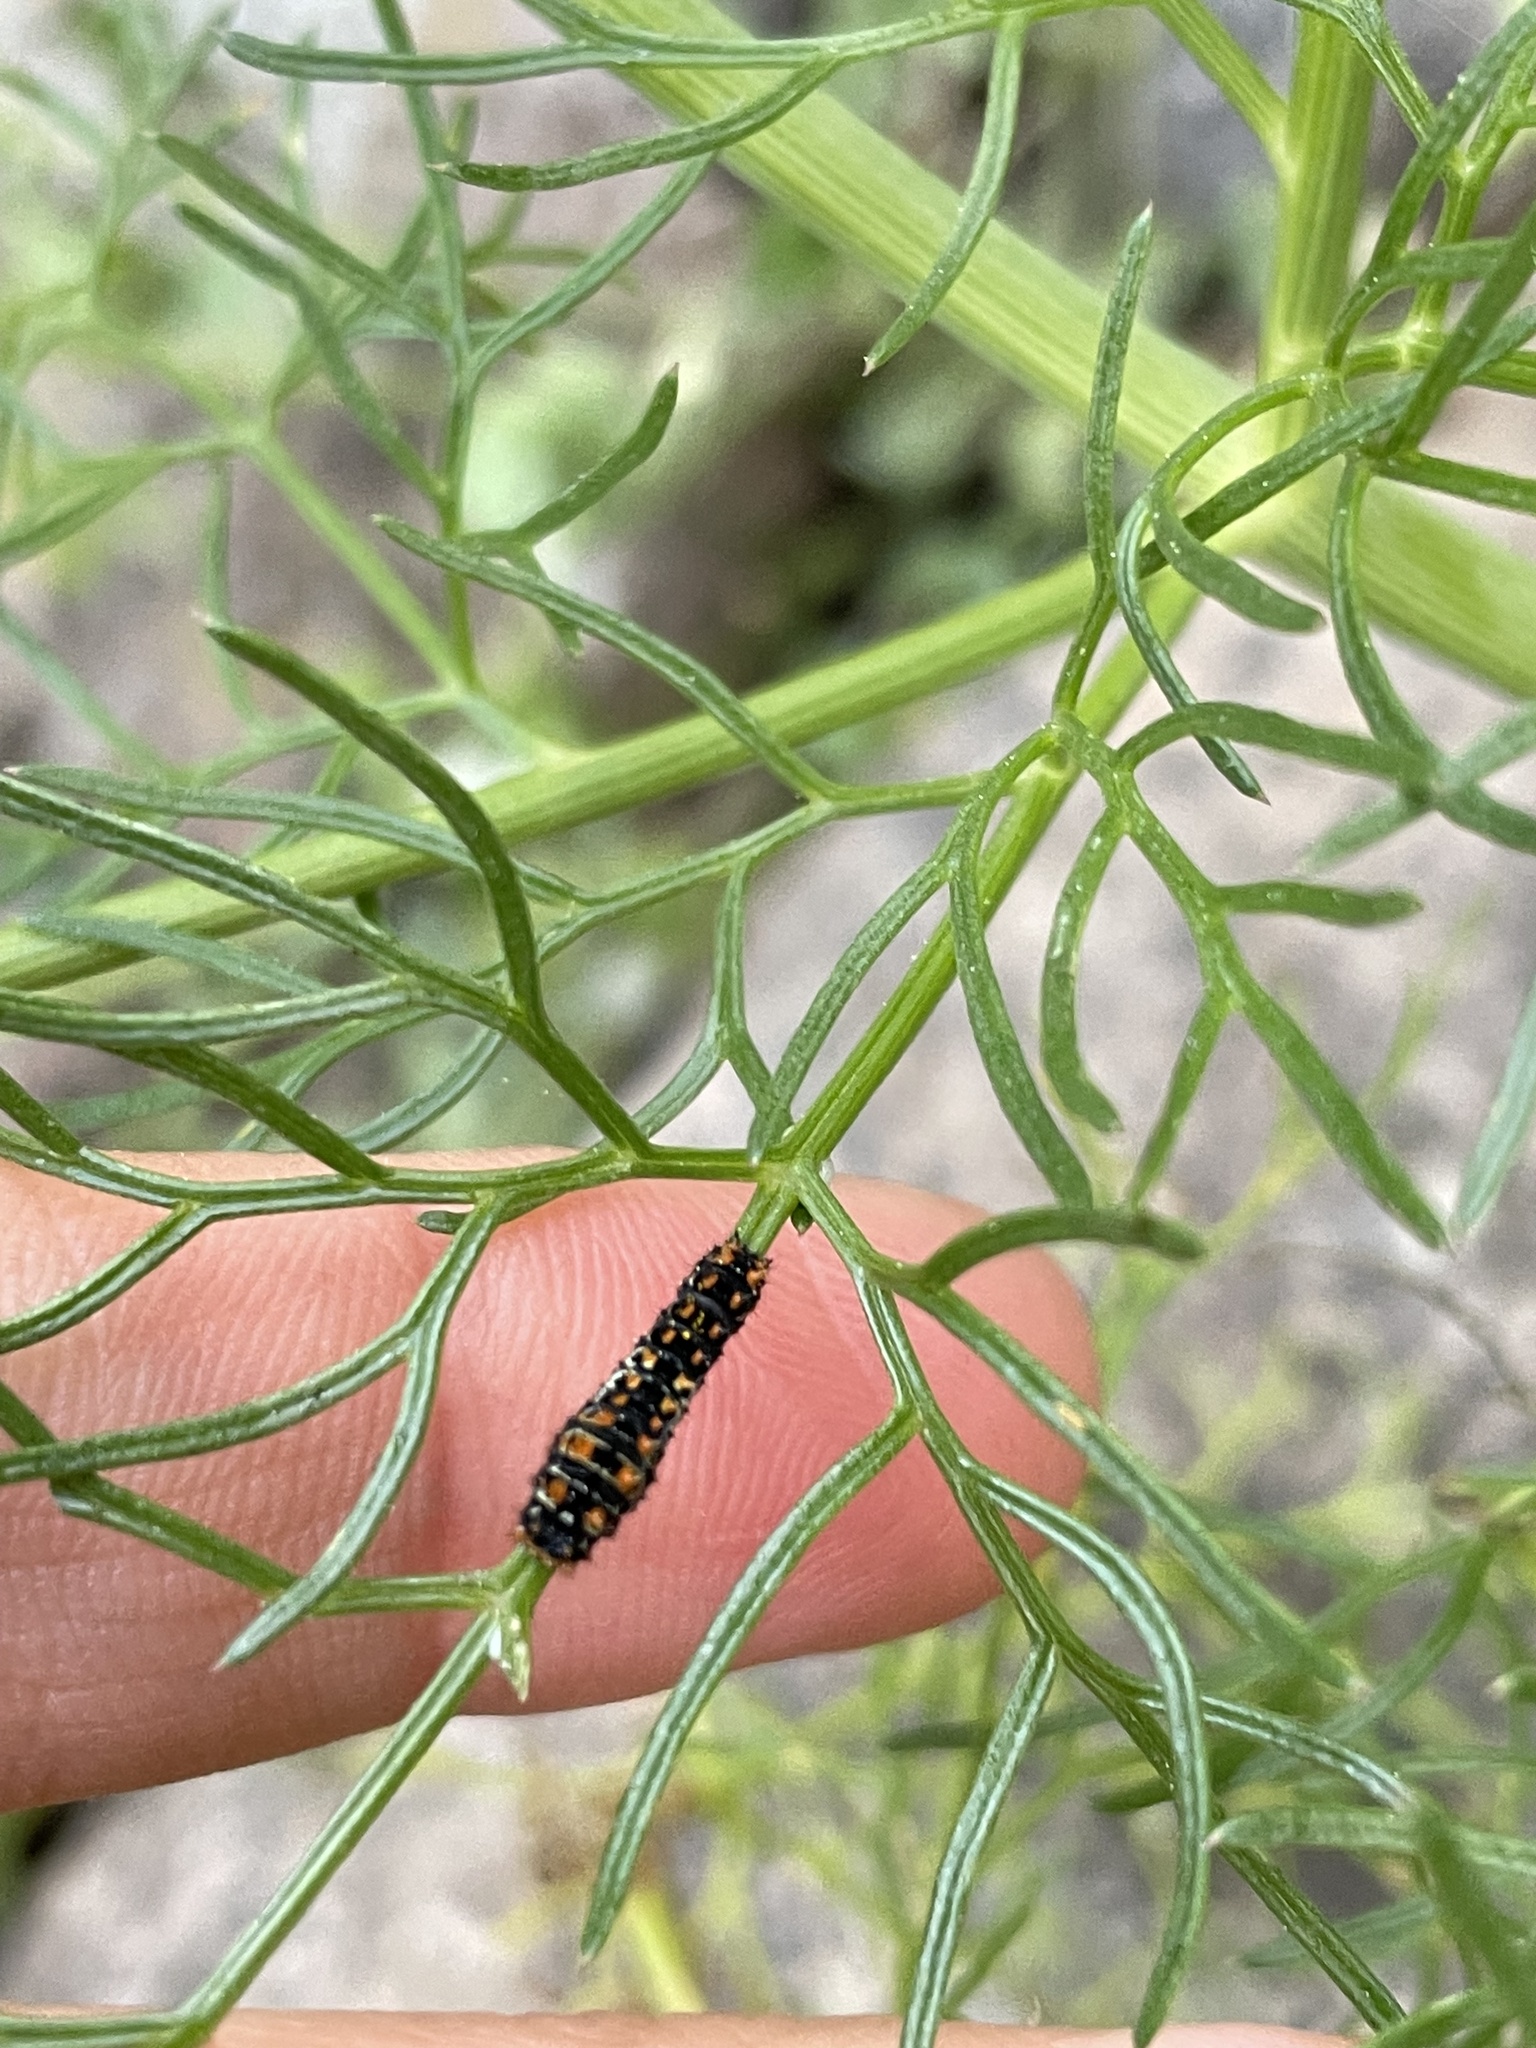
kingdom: Animalia
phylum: Arthropoda
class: Insecta
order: Lepidoptera
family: Papilionidae
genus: Papilio
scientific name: Papilio machaon
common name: Swallowtail
